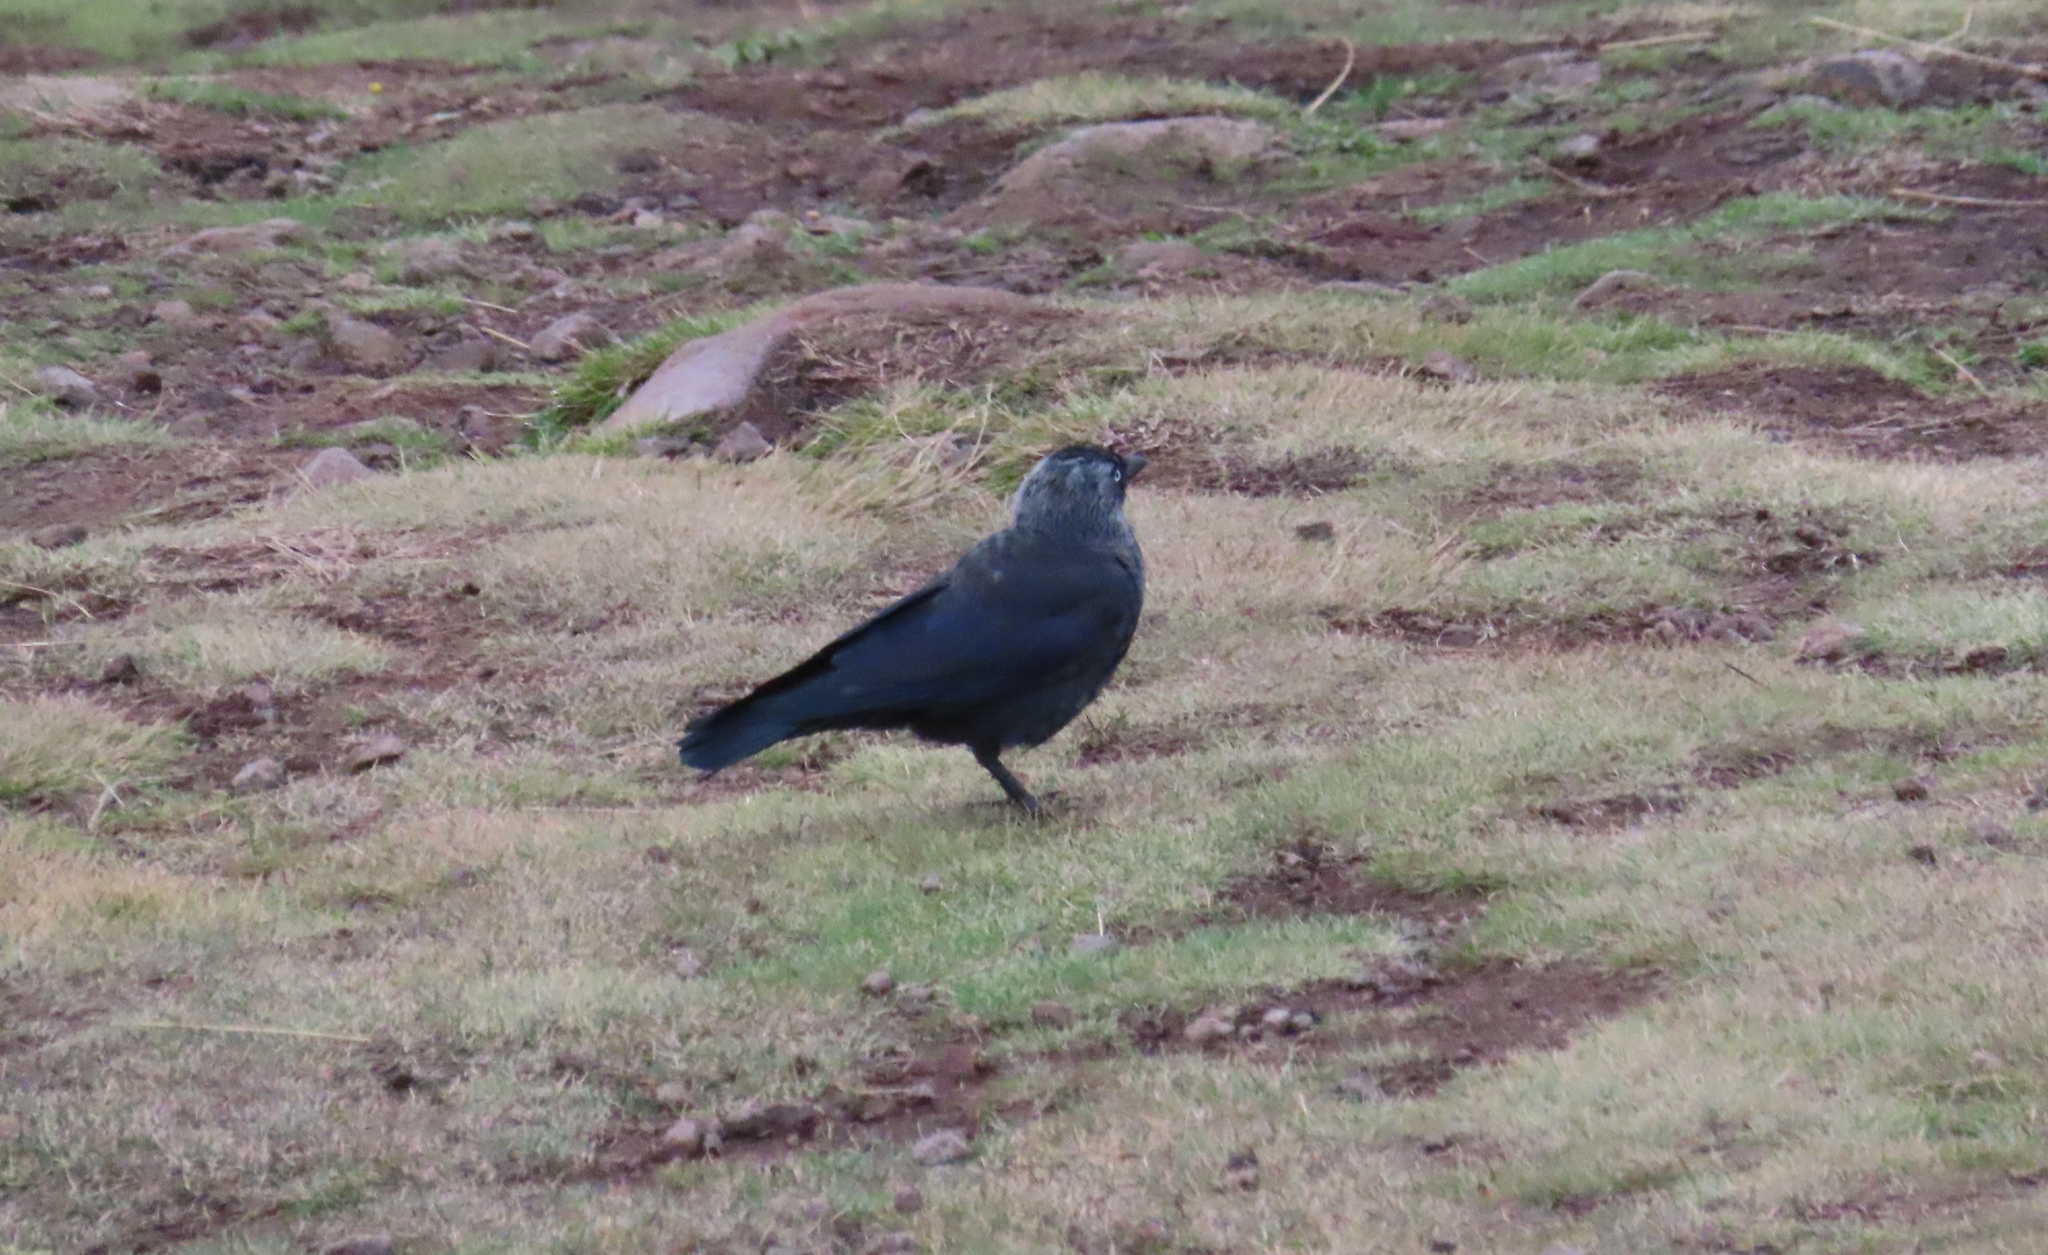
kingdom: Animalia
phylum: Chordata
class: Aves
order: Passeriformes
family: Corvidae
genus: Coloeus
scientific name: Coloeus monedula
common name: Western jackdaw
